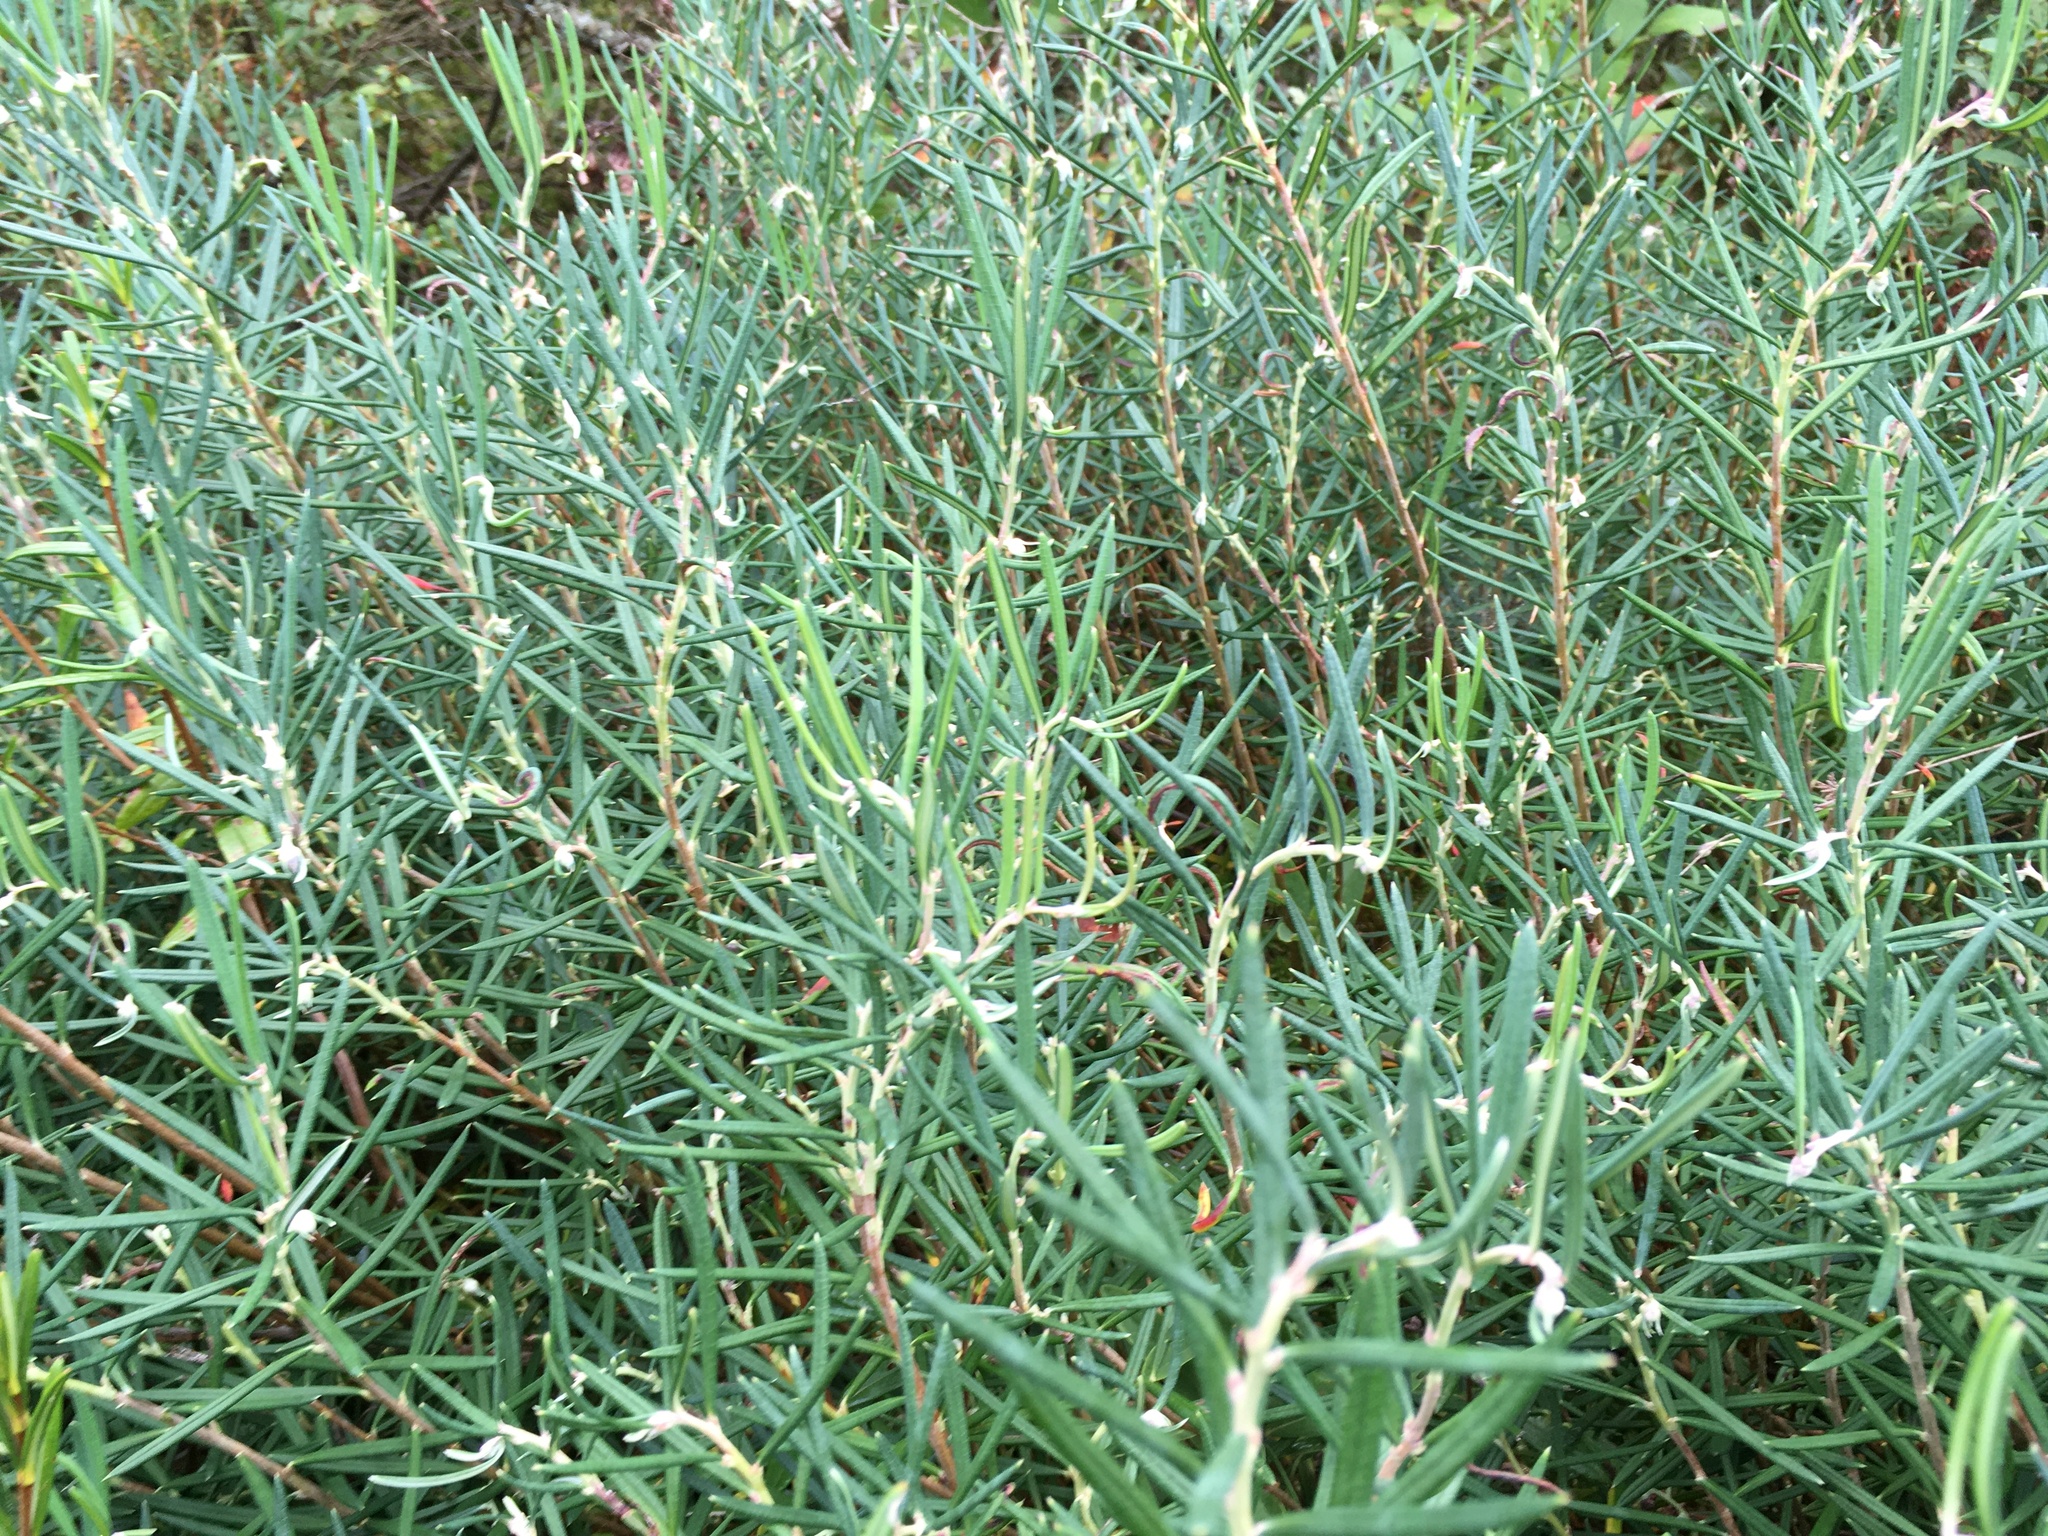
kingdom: Plantae
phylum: Tracheophyta
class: Magnoliopsida
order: Ericales
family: Ericaceae
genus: Andromeda
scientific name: Andromeda polifolia
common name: Bog-rosemary
